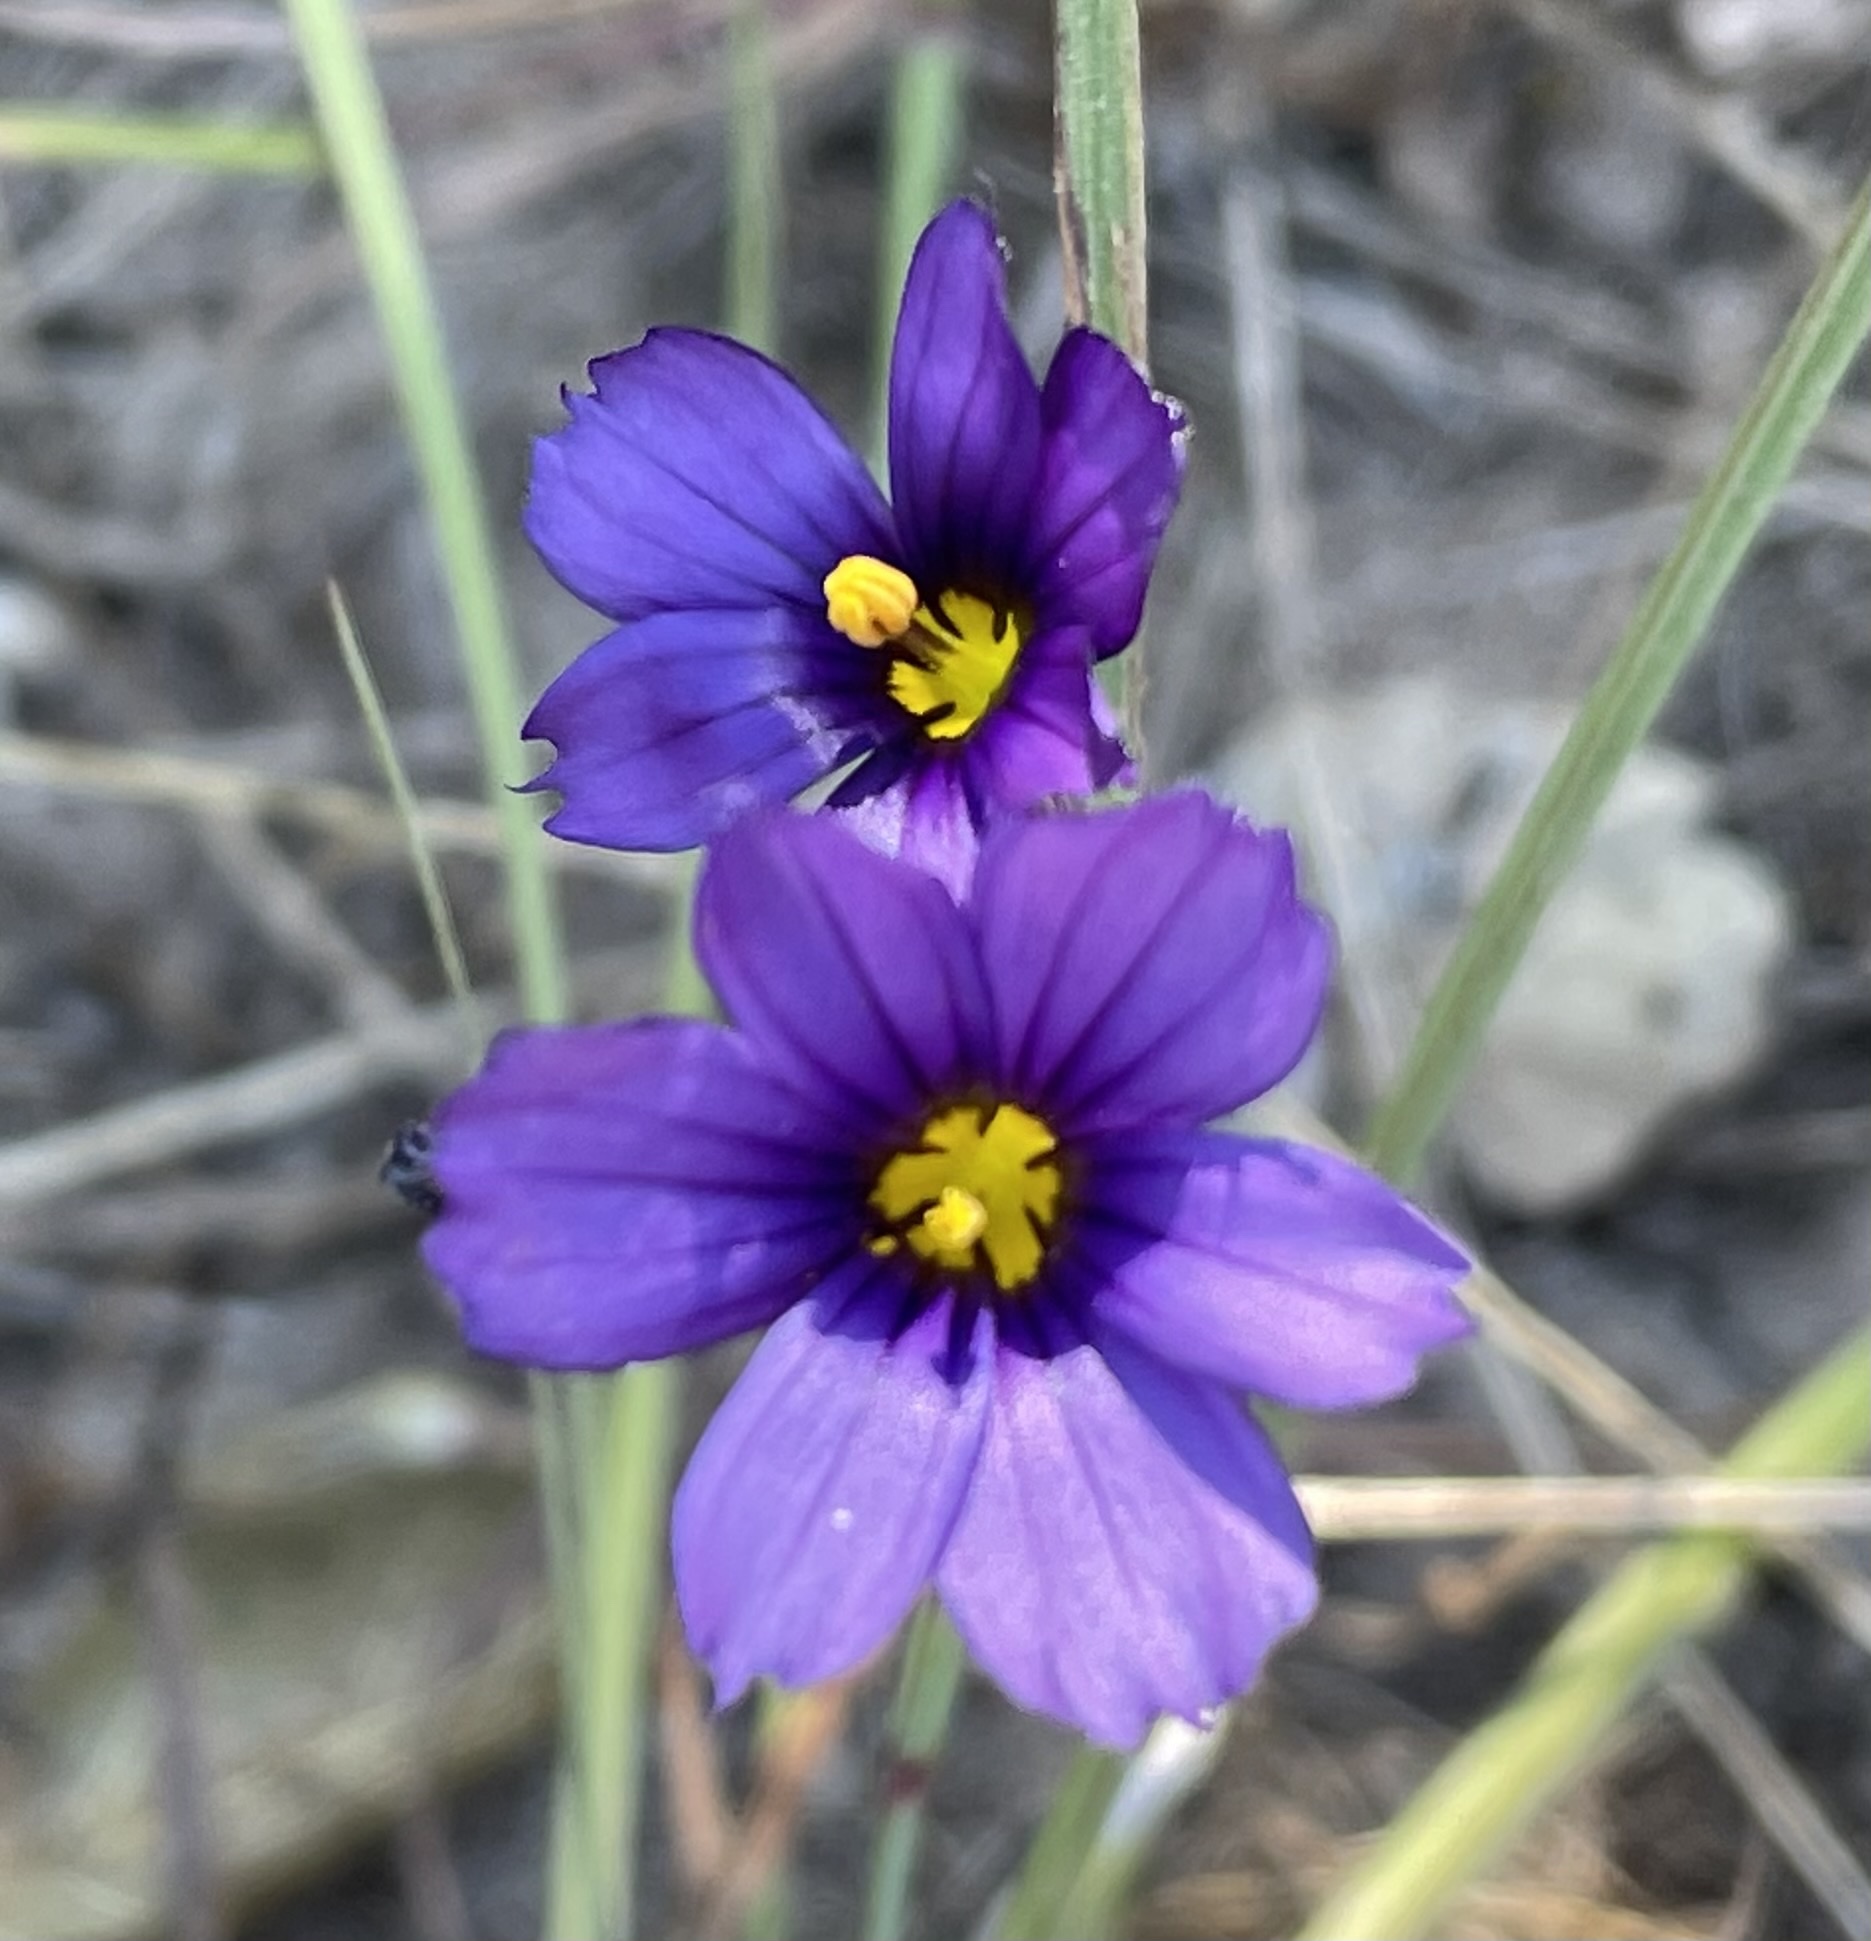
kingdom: Plantae
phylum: Tracheophyta
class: Liliopsida
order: Asparagales
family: Iridaceae
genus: Sisyrinchium
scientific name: Sisyrinchium bellum
